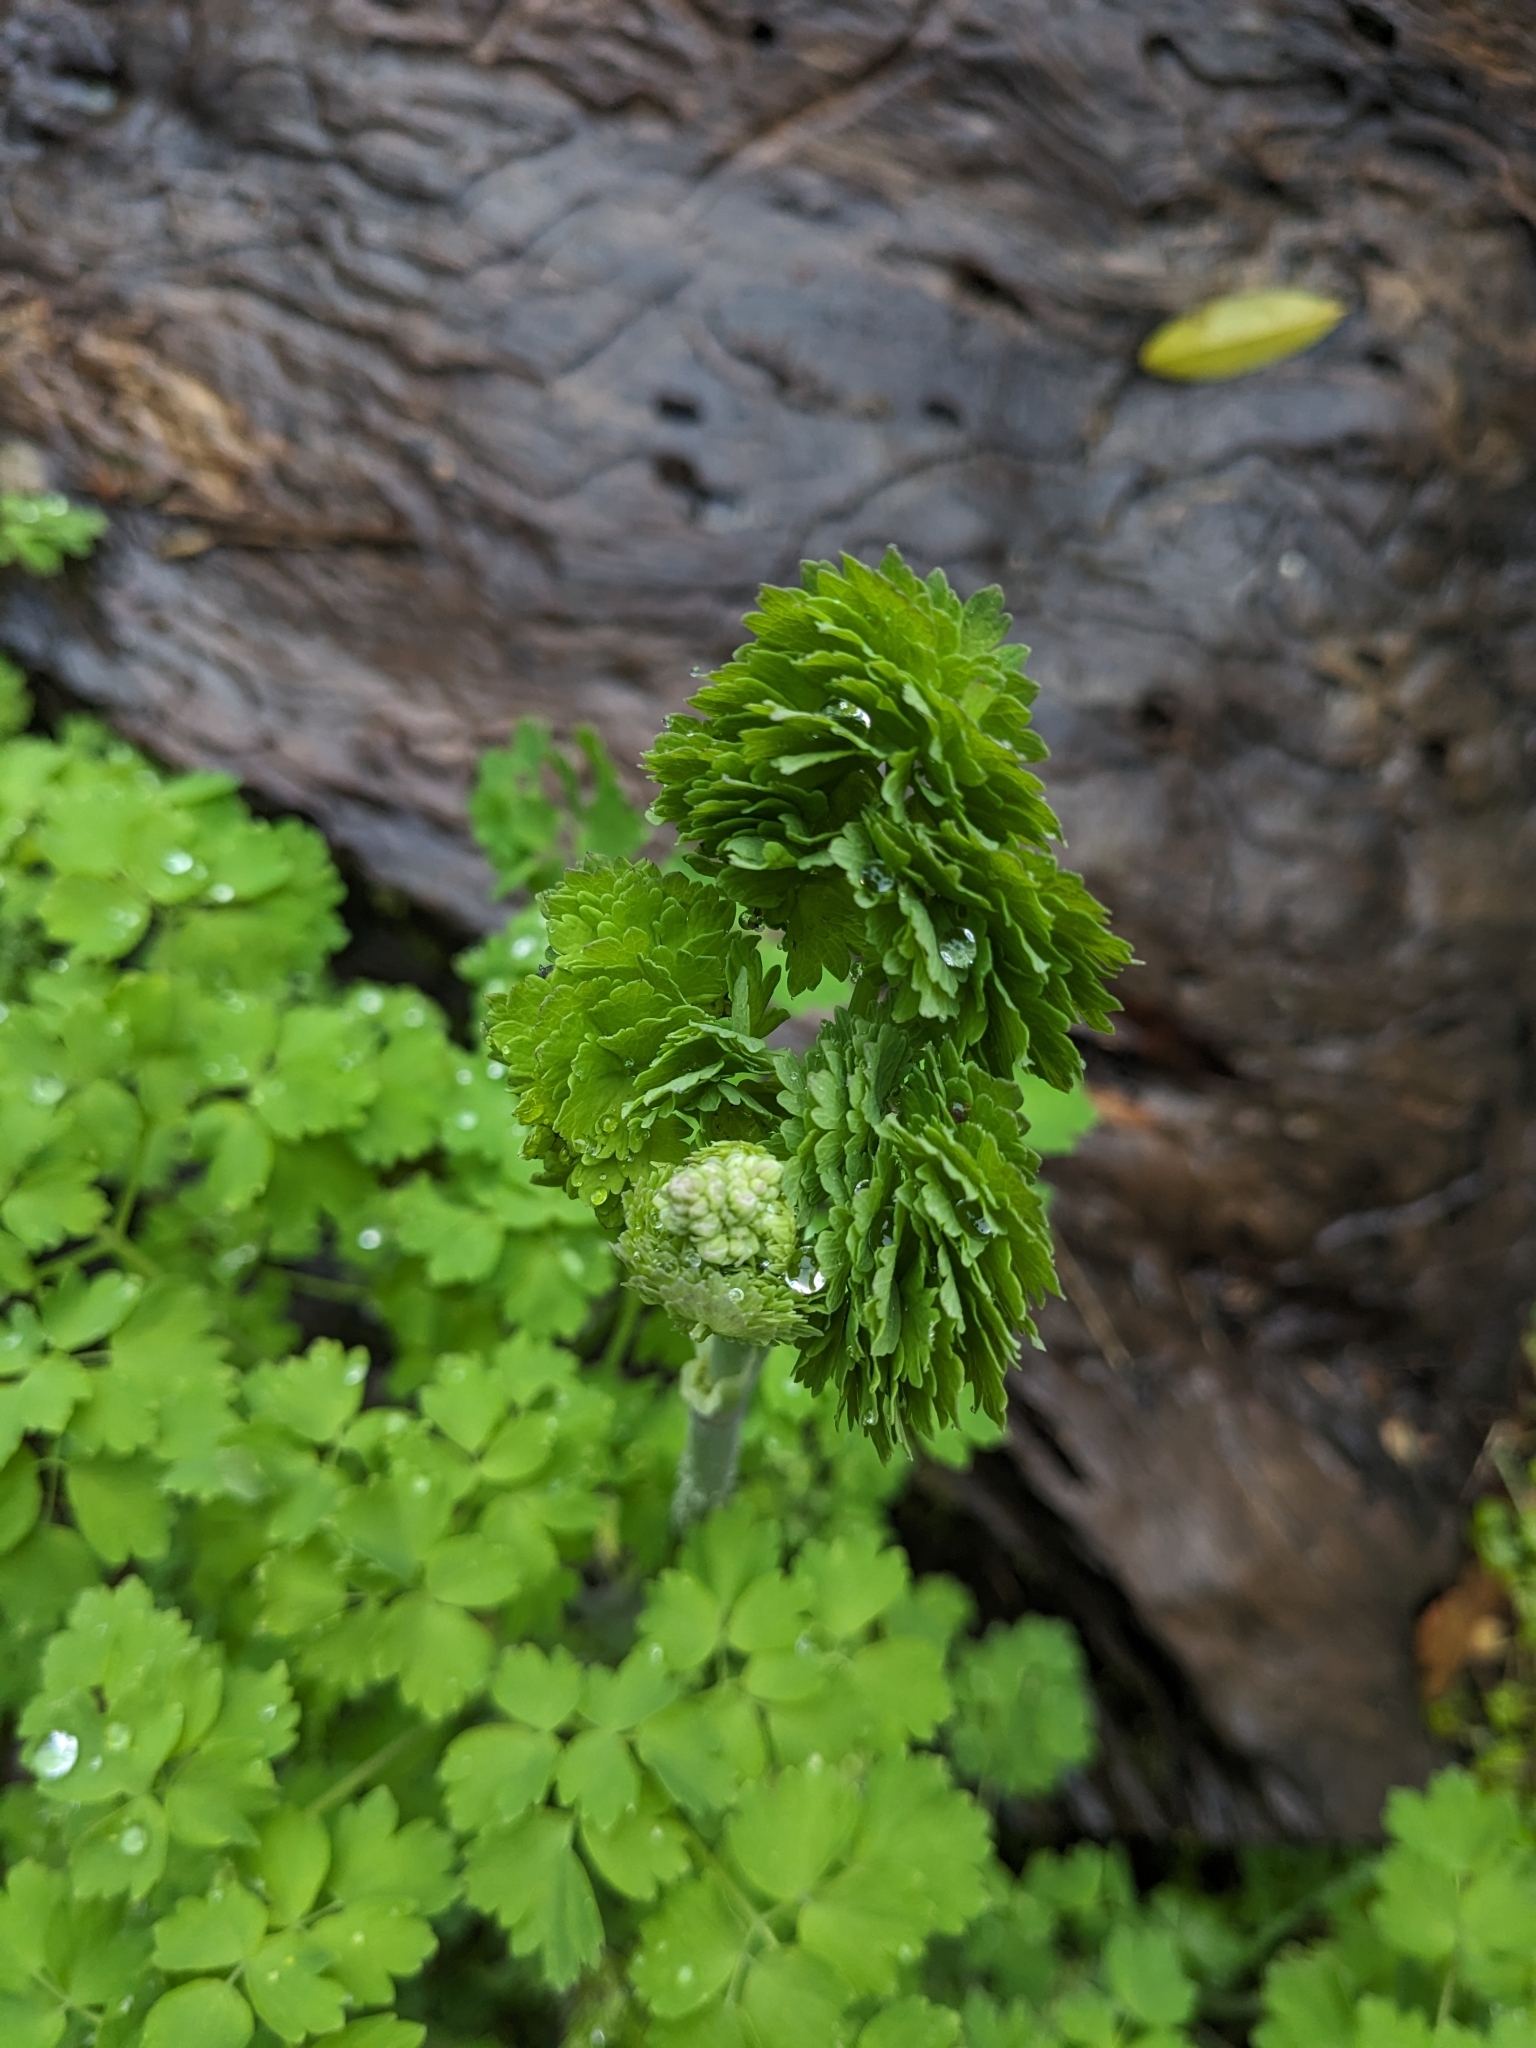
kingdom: Plantae
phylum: Tracheophyta
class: Magnoliopsida
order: Ranunculales
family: Ranunculaceae
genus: Thalictrum
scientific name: Thalictrum fendleri
